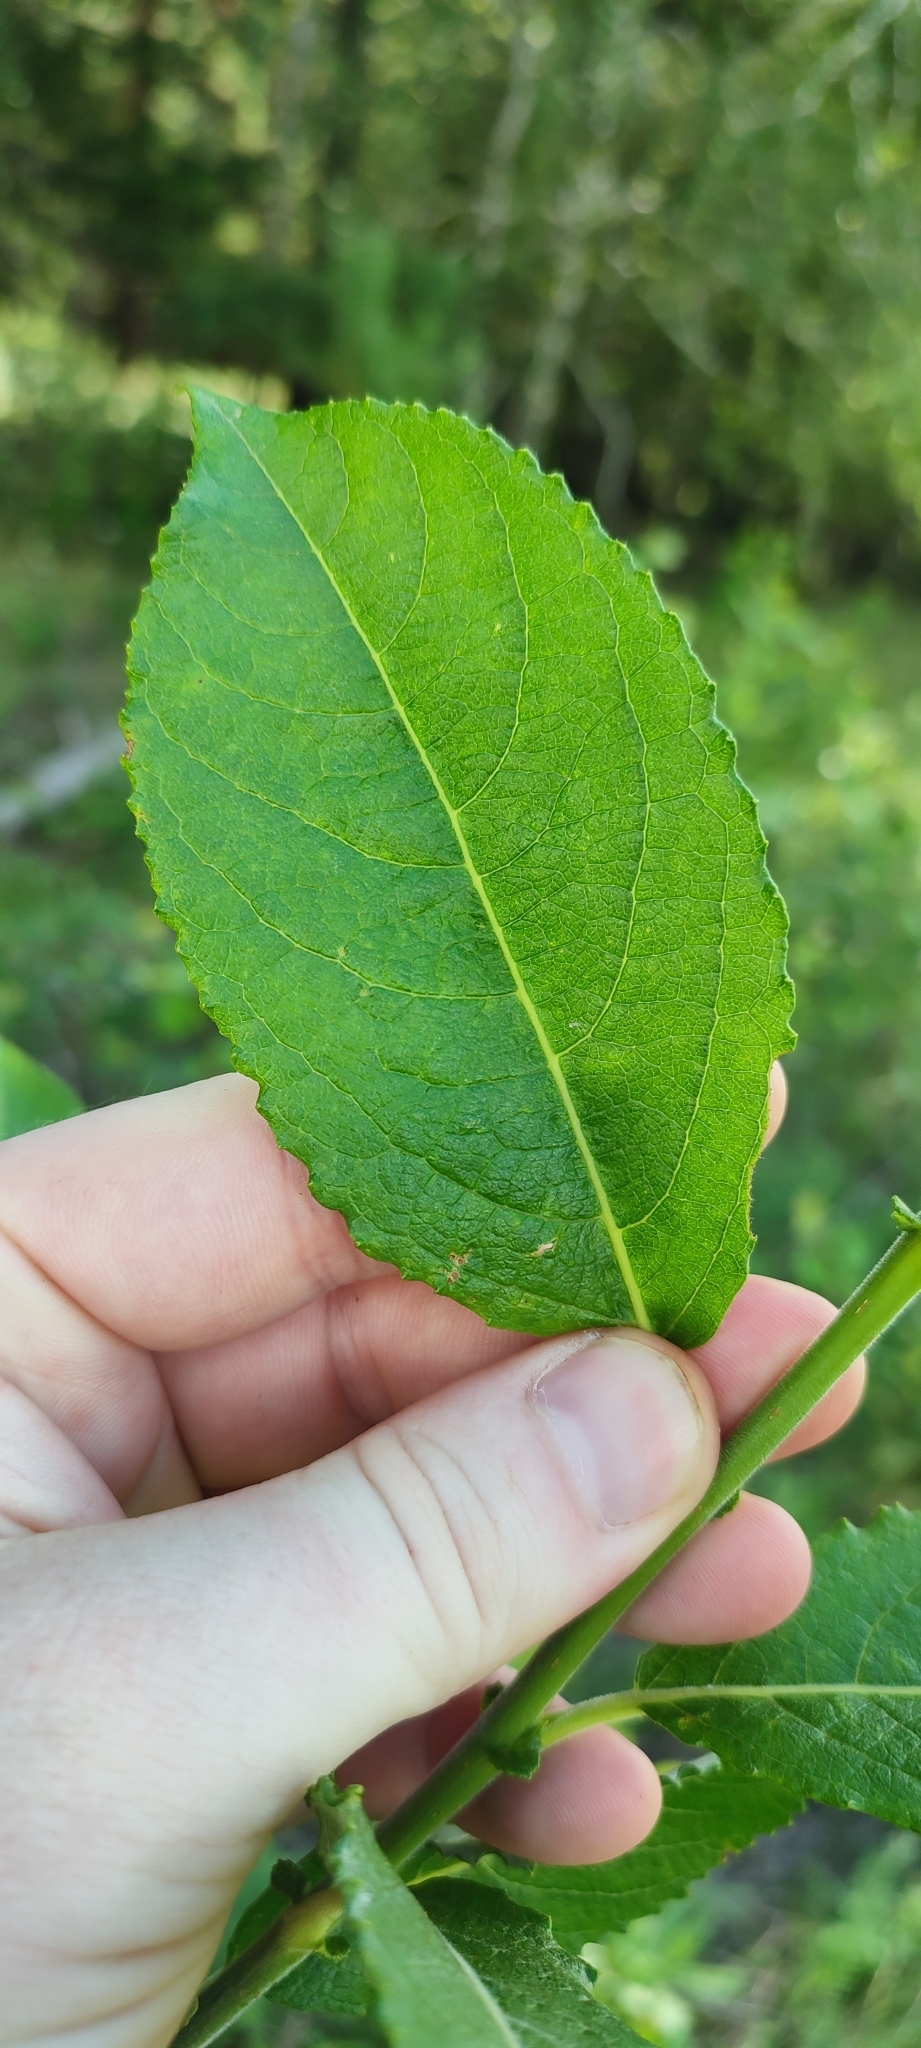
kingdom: Plantae
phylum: Tracheophyta
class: Magnoliopsida
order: Malpighiales
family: Salicaceae
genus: Salix
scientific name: Salix caprea
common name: Goat willow
